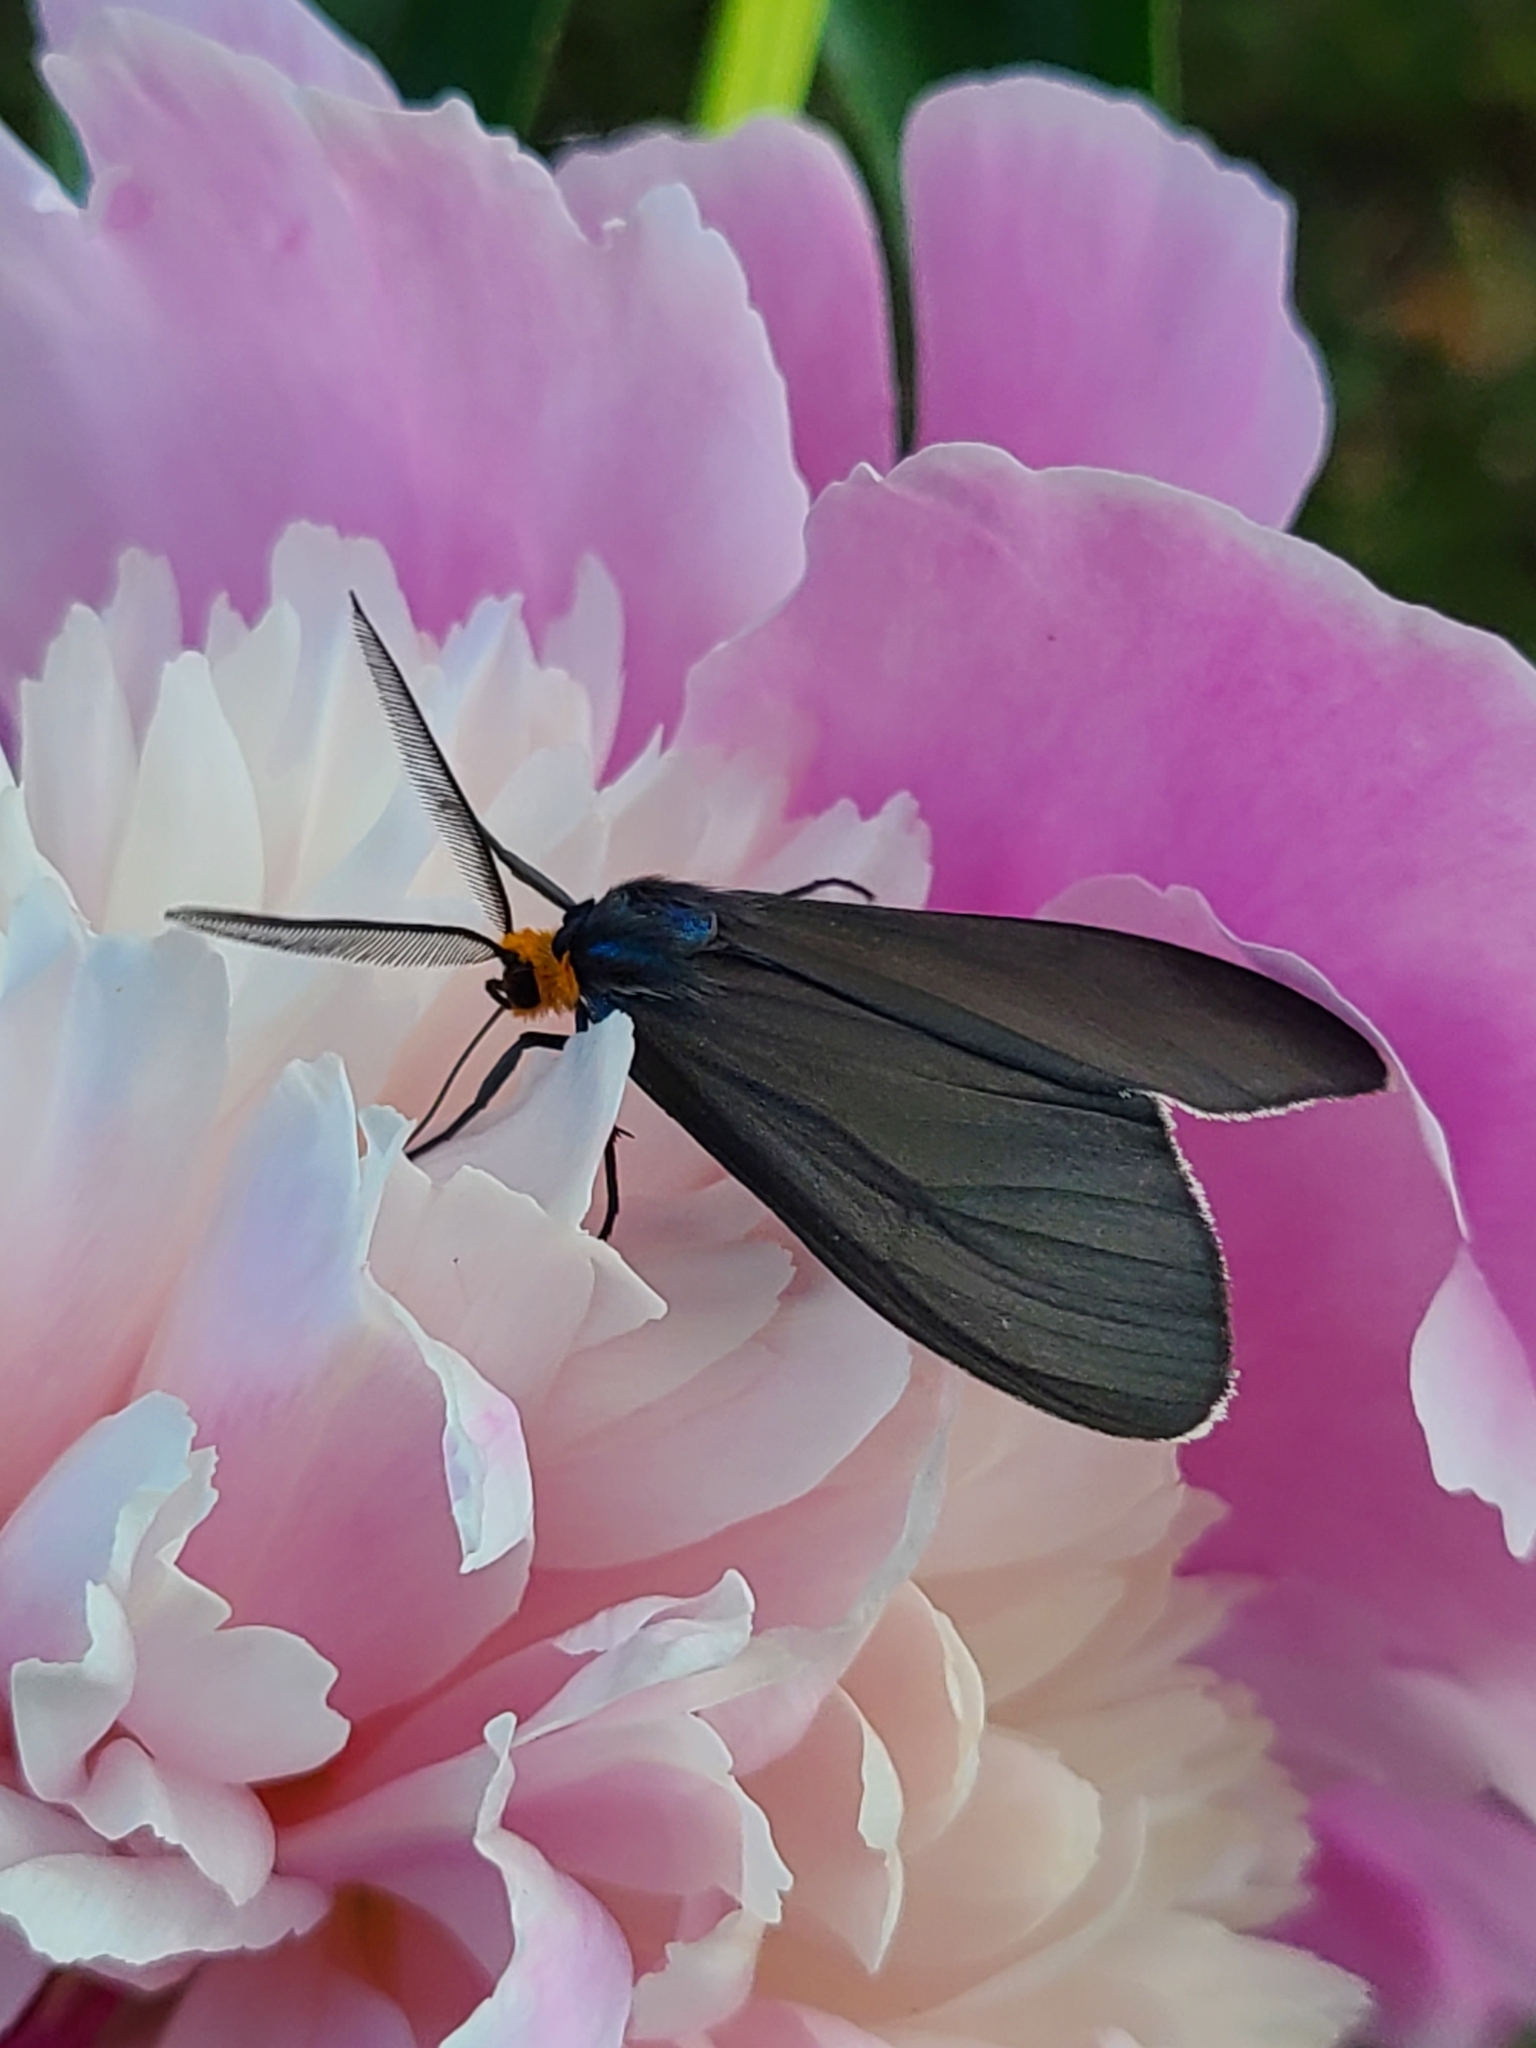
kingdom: Animalia
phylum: Arthropoda
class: Insecta
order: Lepidoptera
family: Erebidae
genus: Ctenucha
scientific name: Ctenucha virginica
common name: Virginia ctenucha moth
